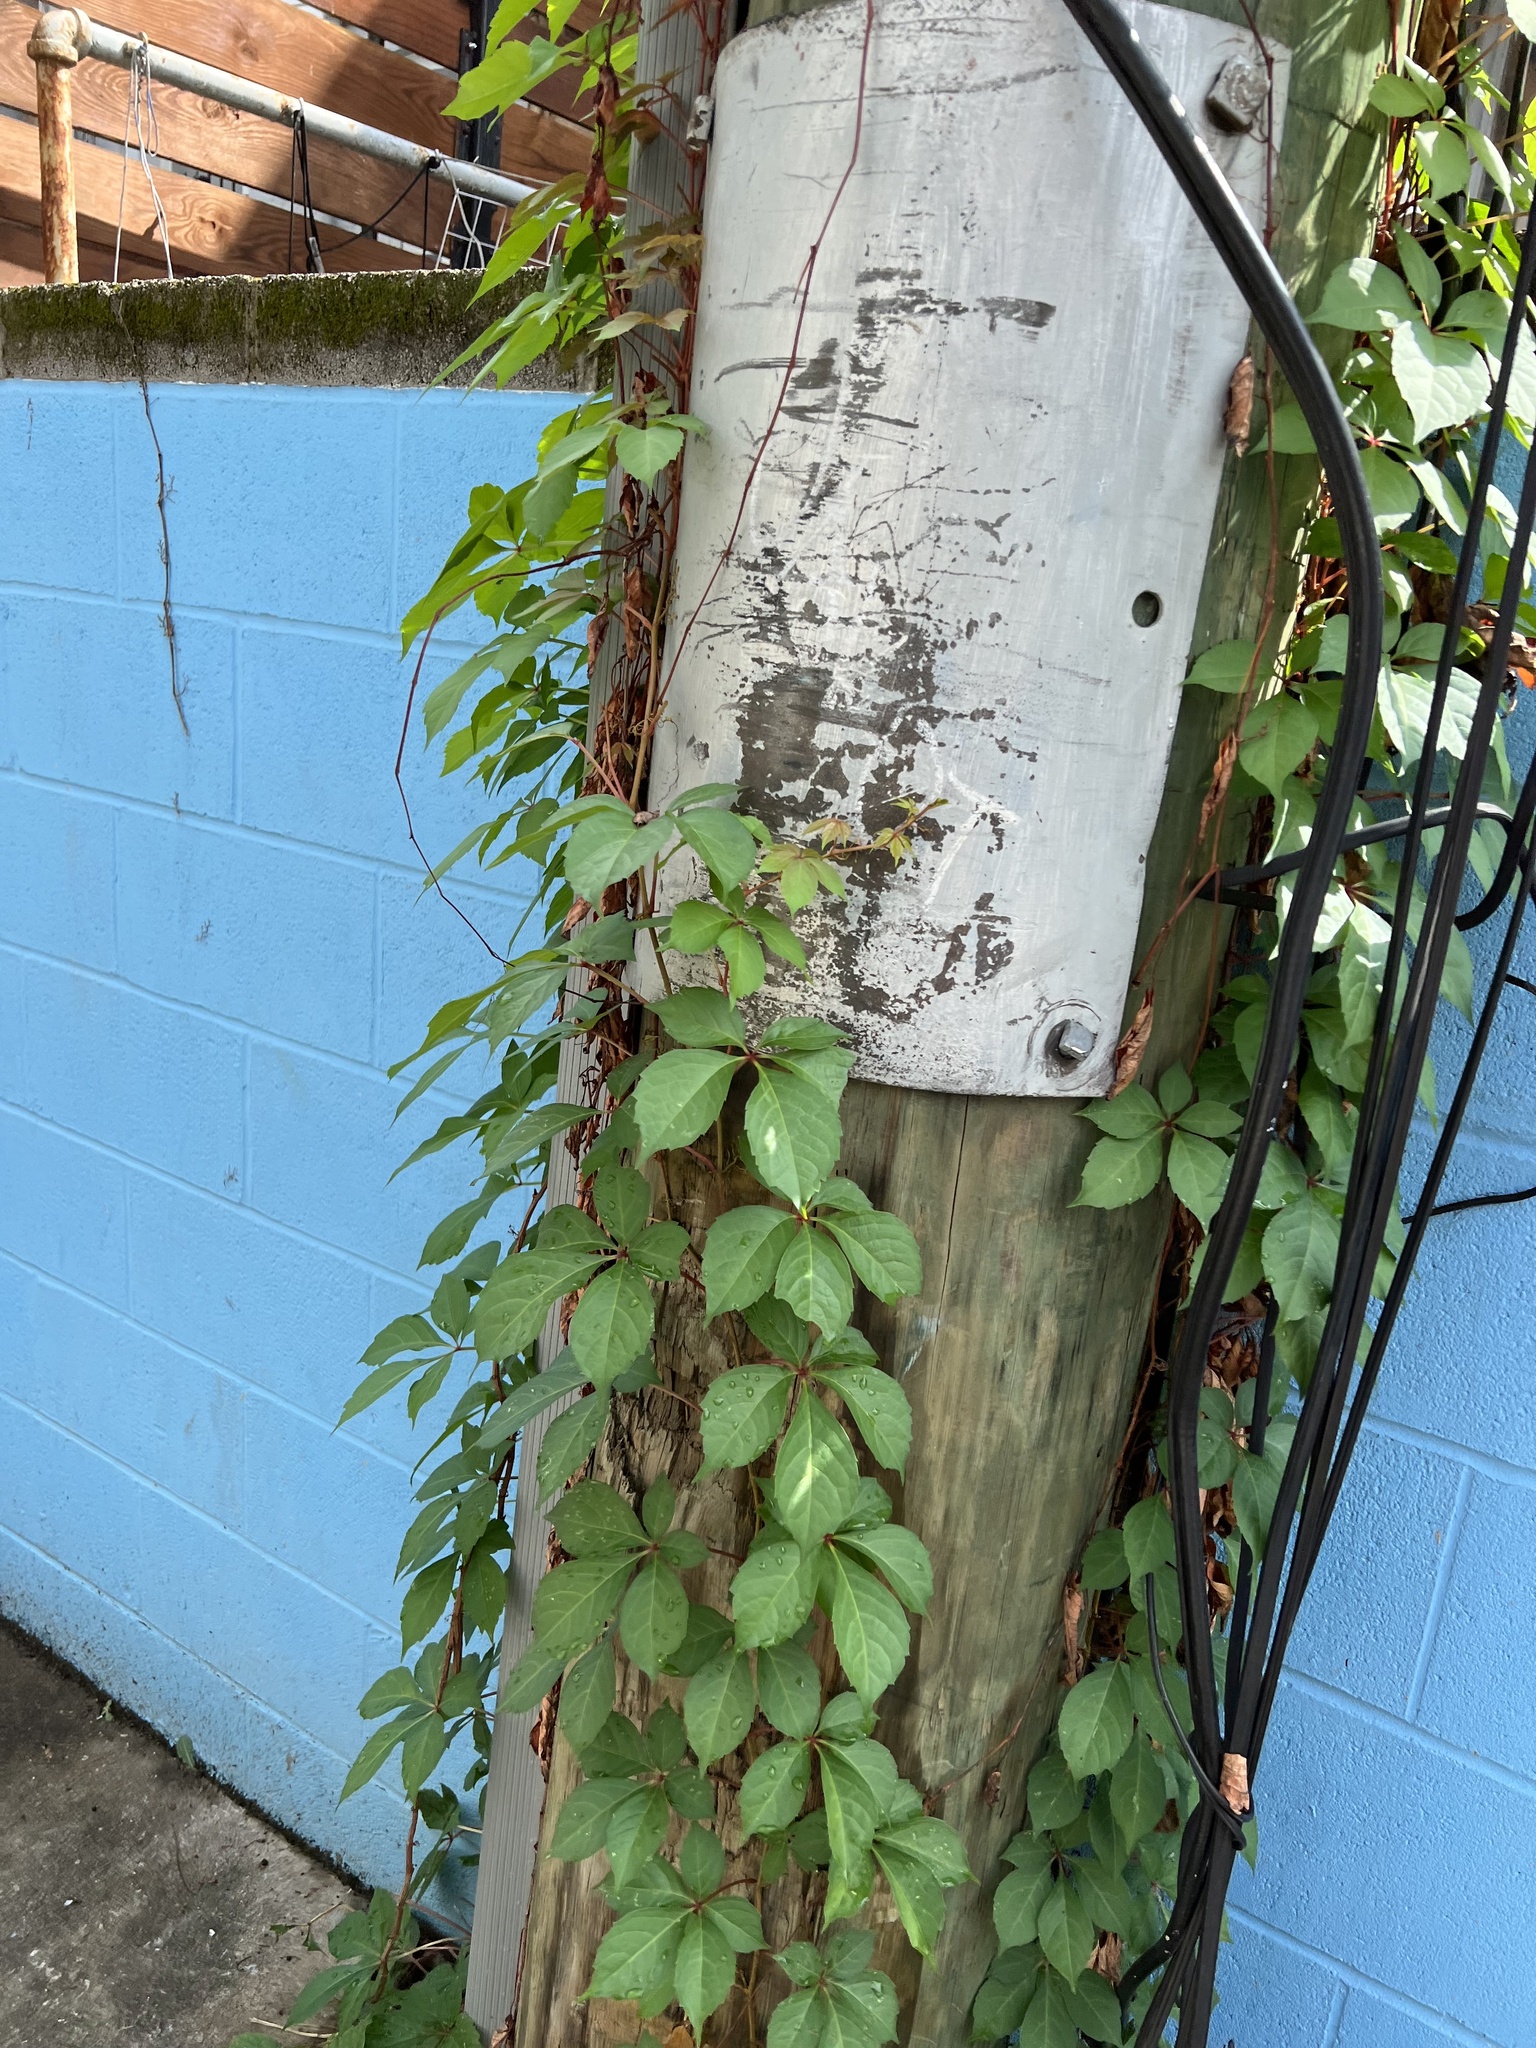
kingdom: Plantae
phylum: Tracheophyta
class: Magnoliopsida
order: Vitales
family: Vitaceae
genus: Parthenocissus
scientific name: Parthenocissus quinquefolia
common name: Virginia-creeper
